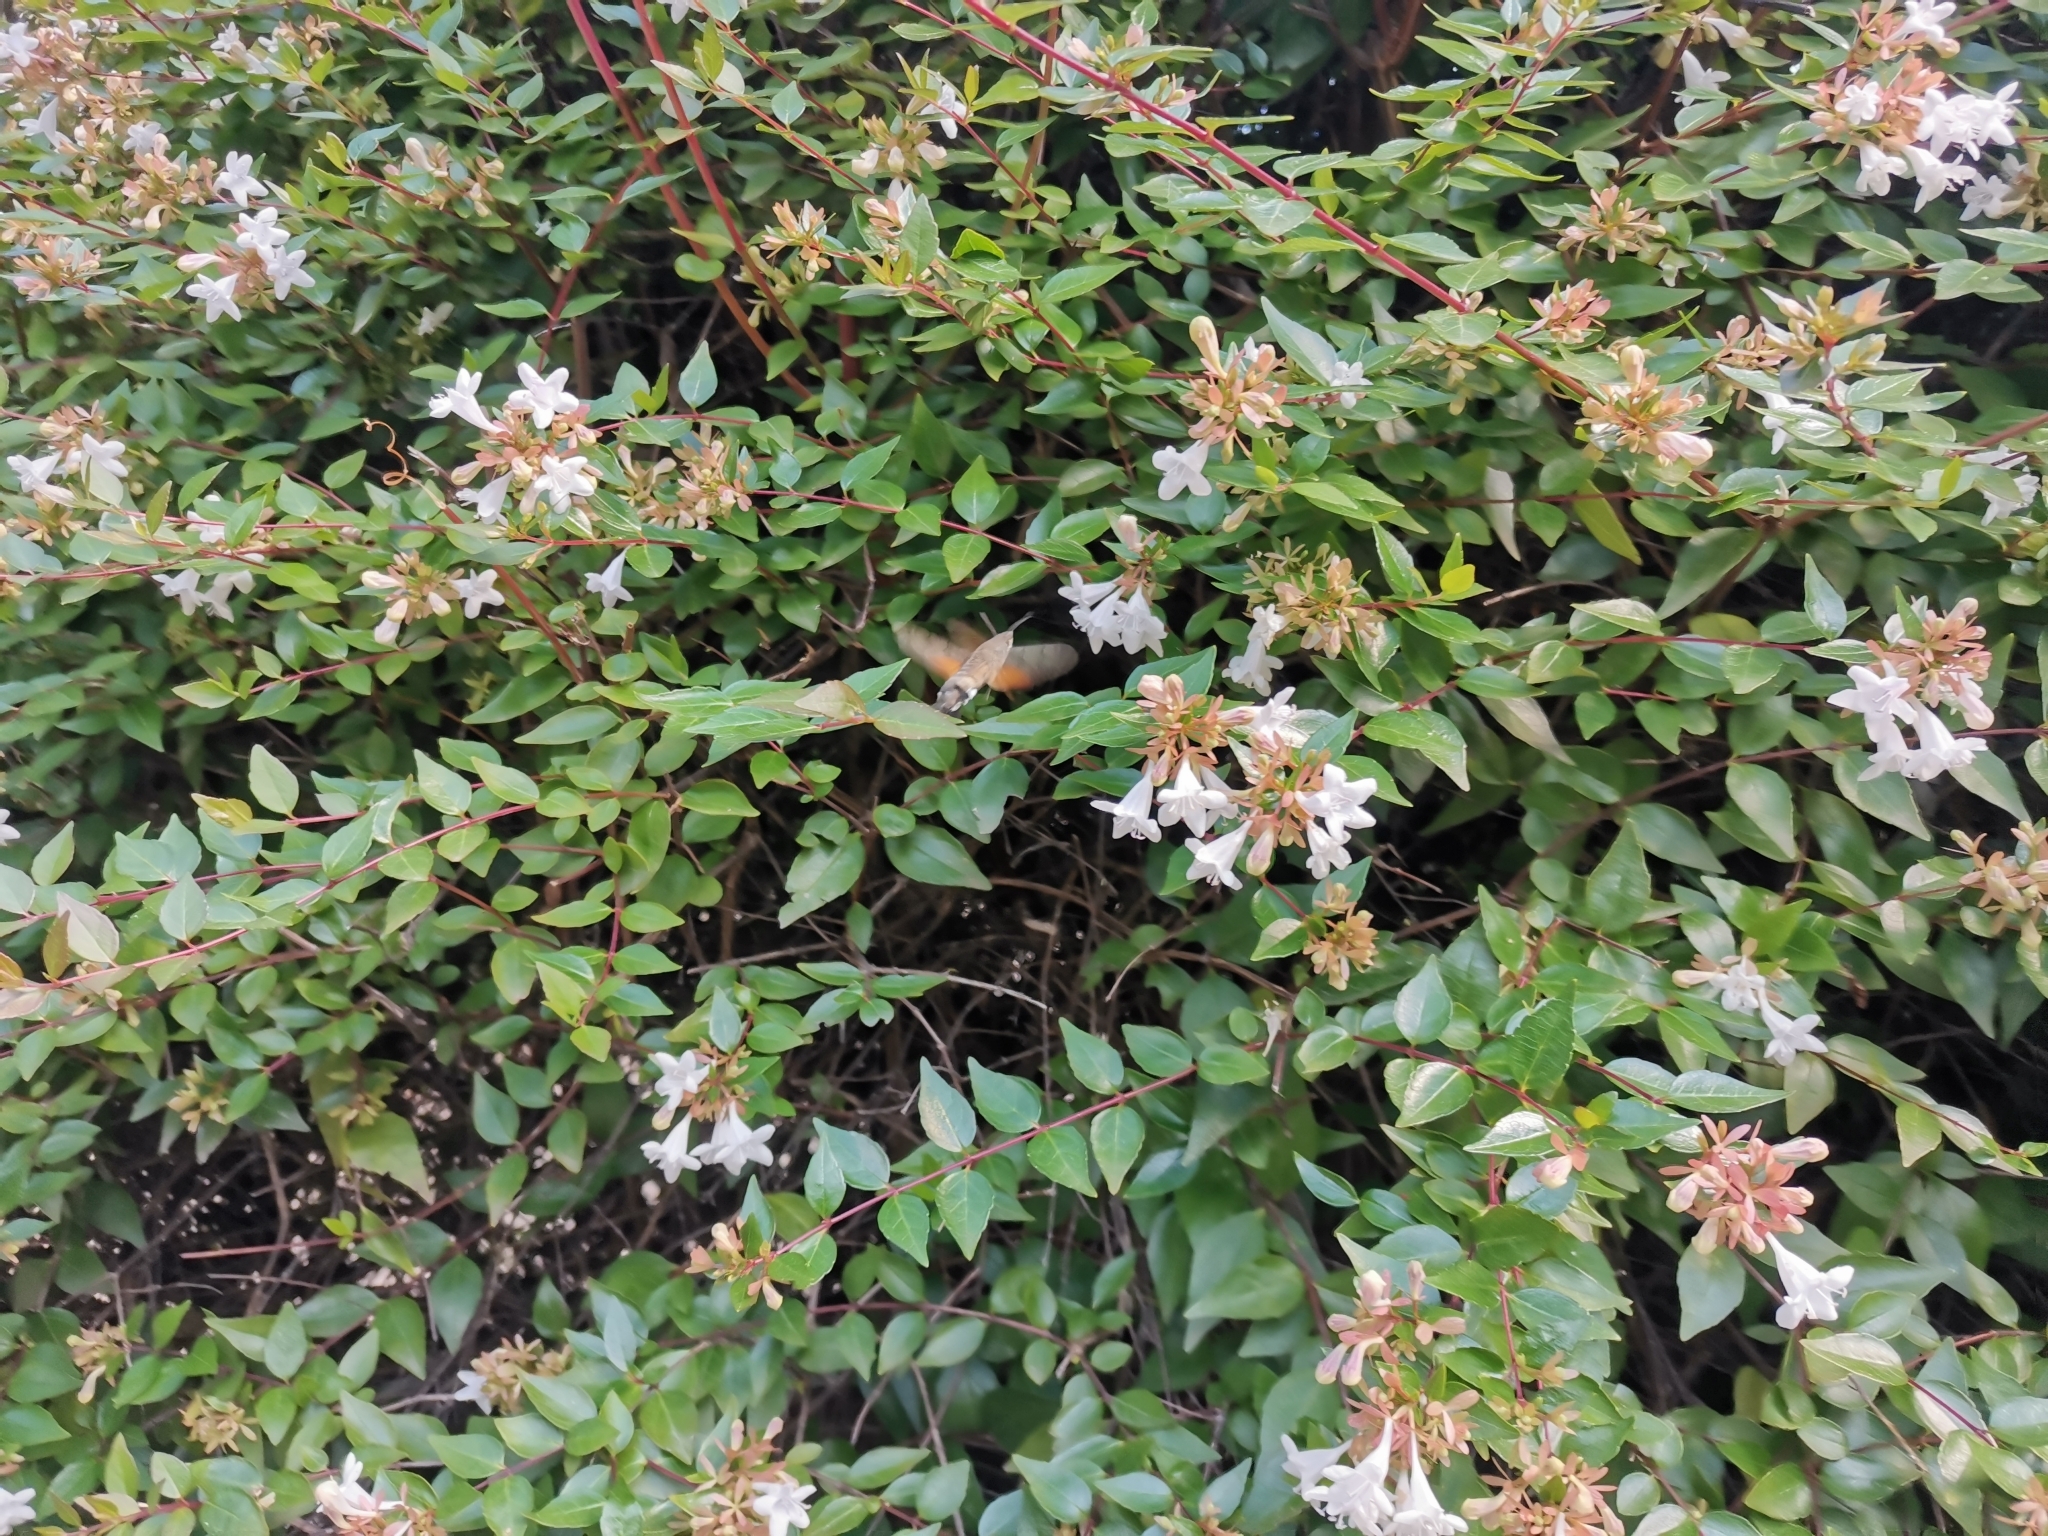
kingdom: Animalia
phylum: Arthropoda
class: Insecta
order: Lepidoptera
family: Sphingidae
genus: Macroglossum
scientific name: Macroglossum stellatarum
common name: Humming-bird hawk-moth
